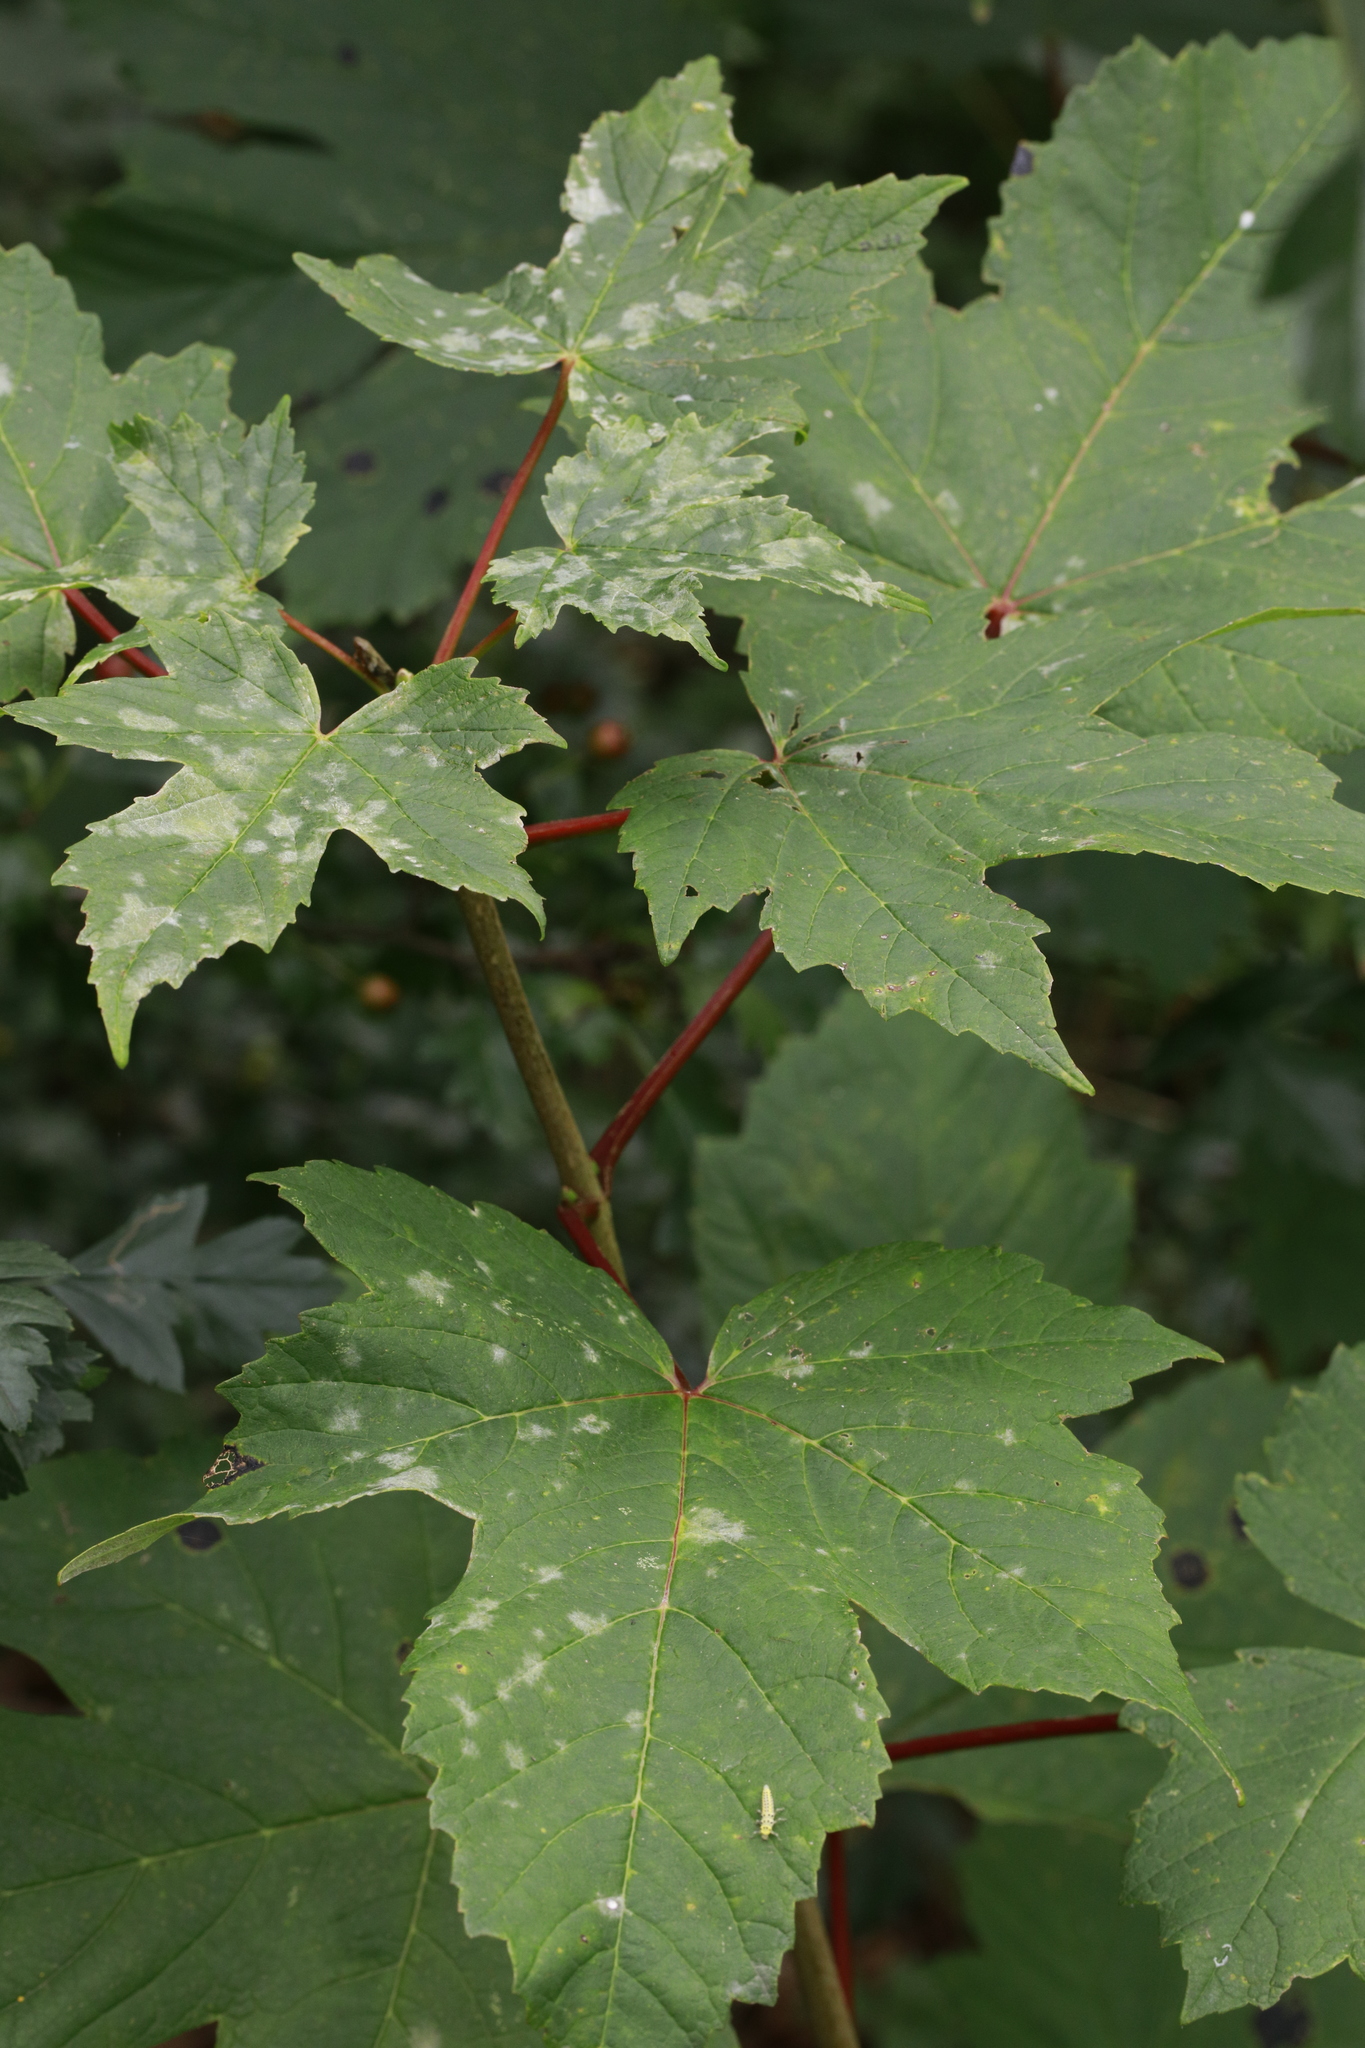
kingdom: Plantae
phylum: Tracheophyta
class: Magnoliopsida
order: Sapindales
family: Sapindaceae
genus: Acer
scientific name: Acer pseudoplatanus
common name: Sycamore
